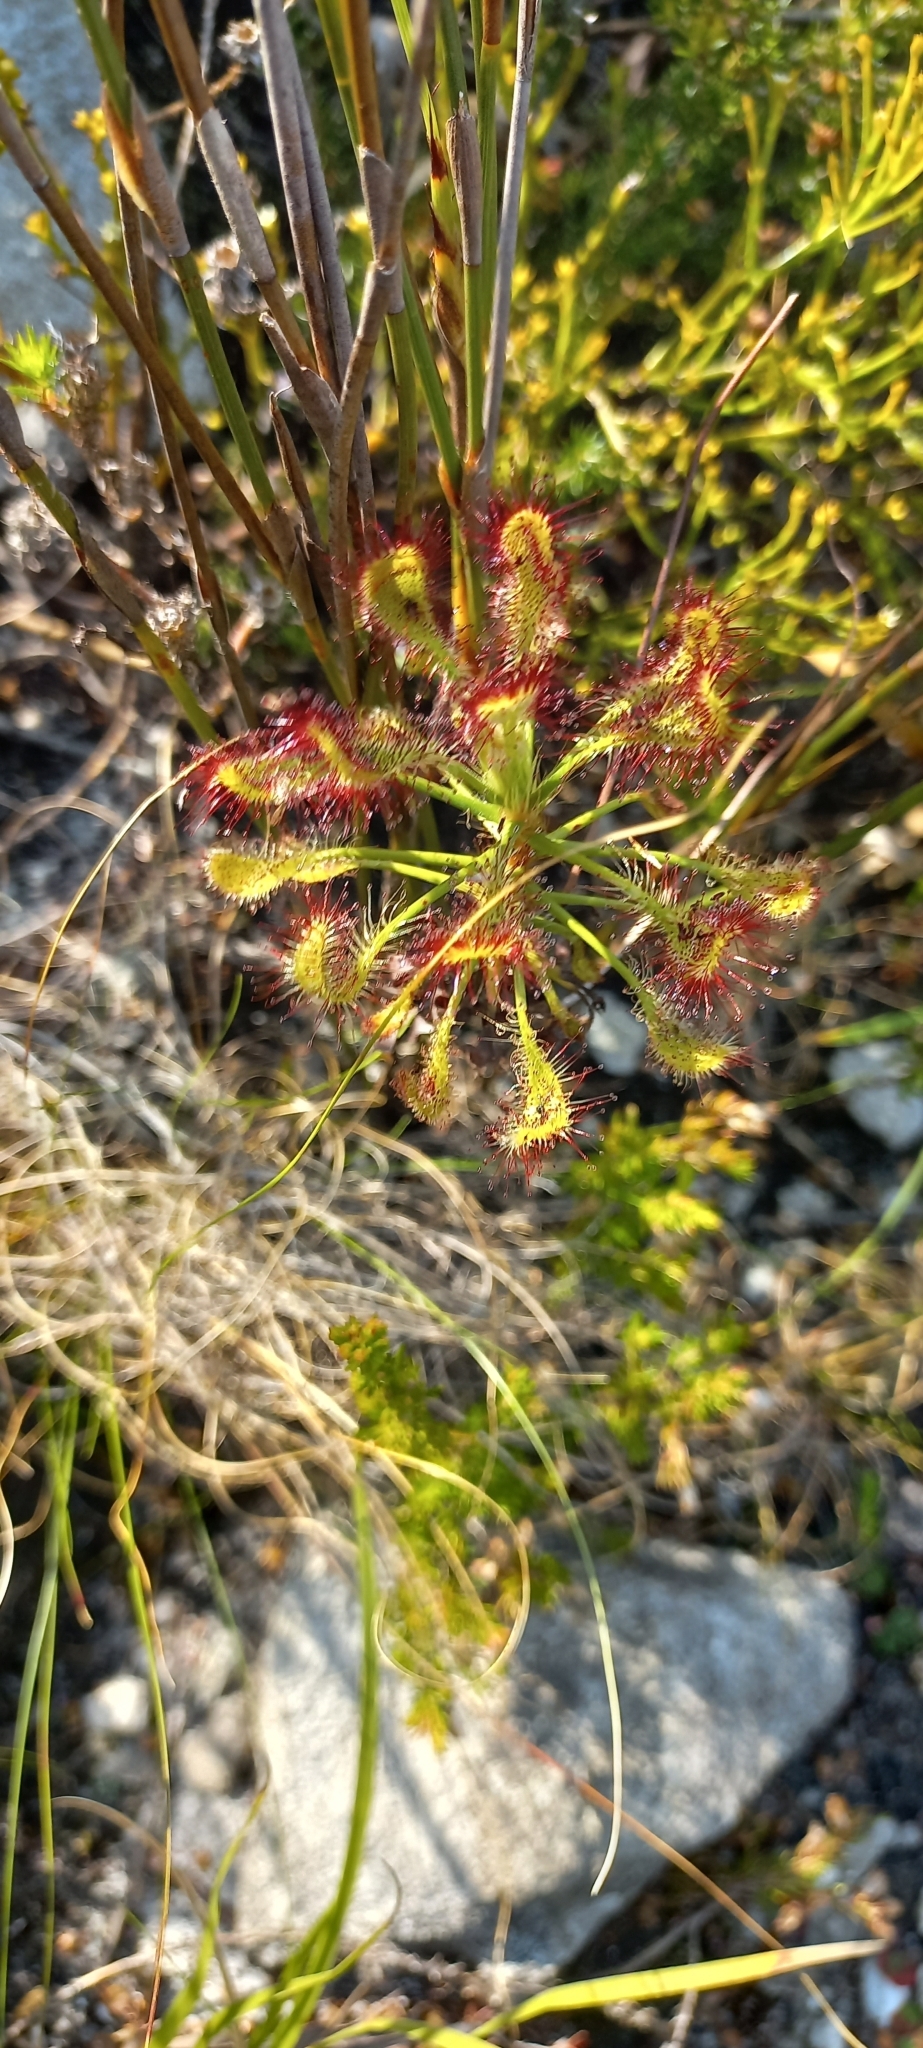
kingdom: Plantae
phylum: Tracheophyta
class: Magnoliopsida
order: Caryophyllales
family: Droseraceae
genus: Drosera
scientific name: Drosera glabripes
